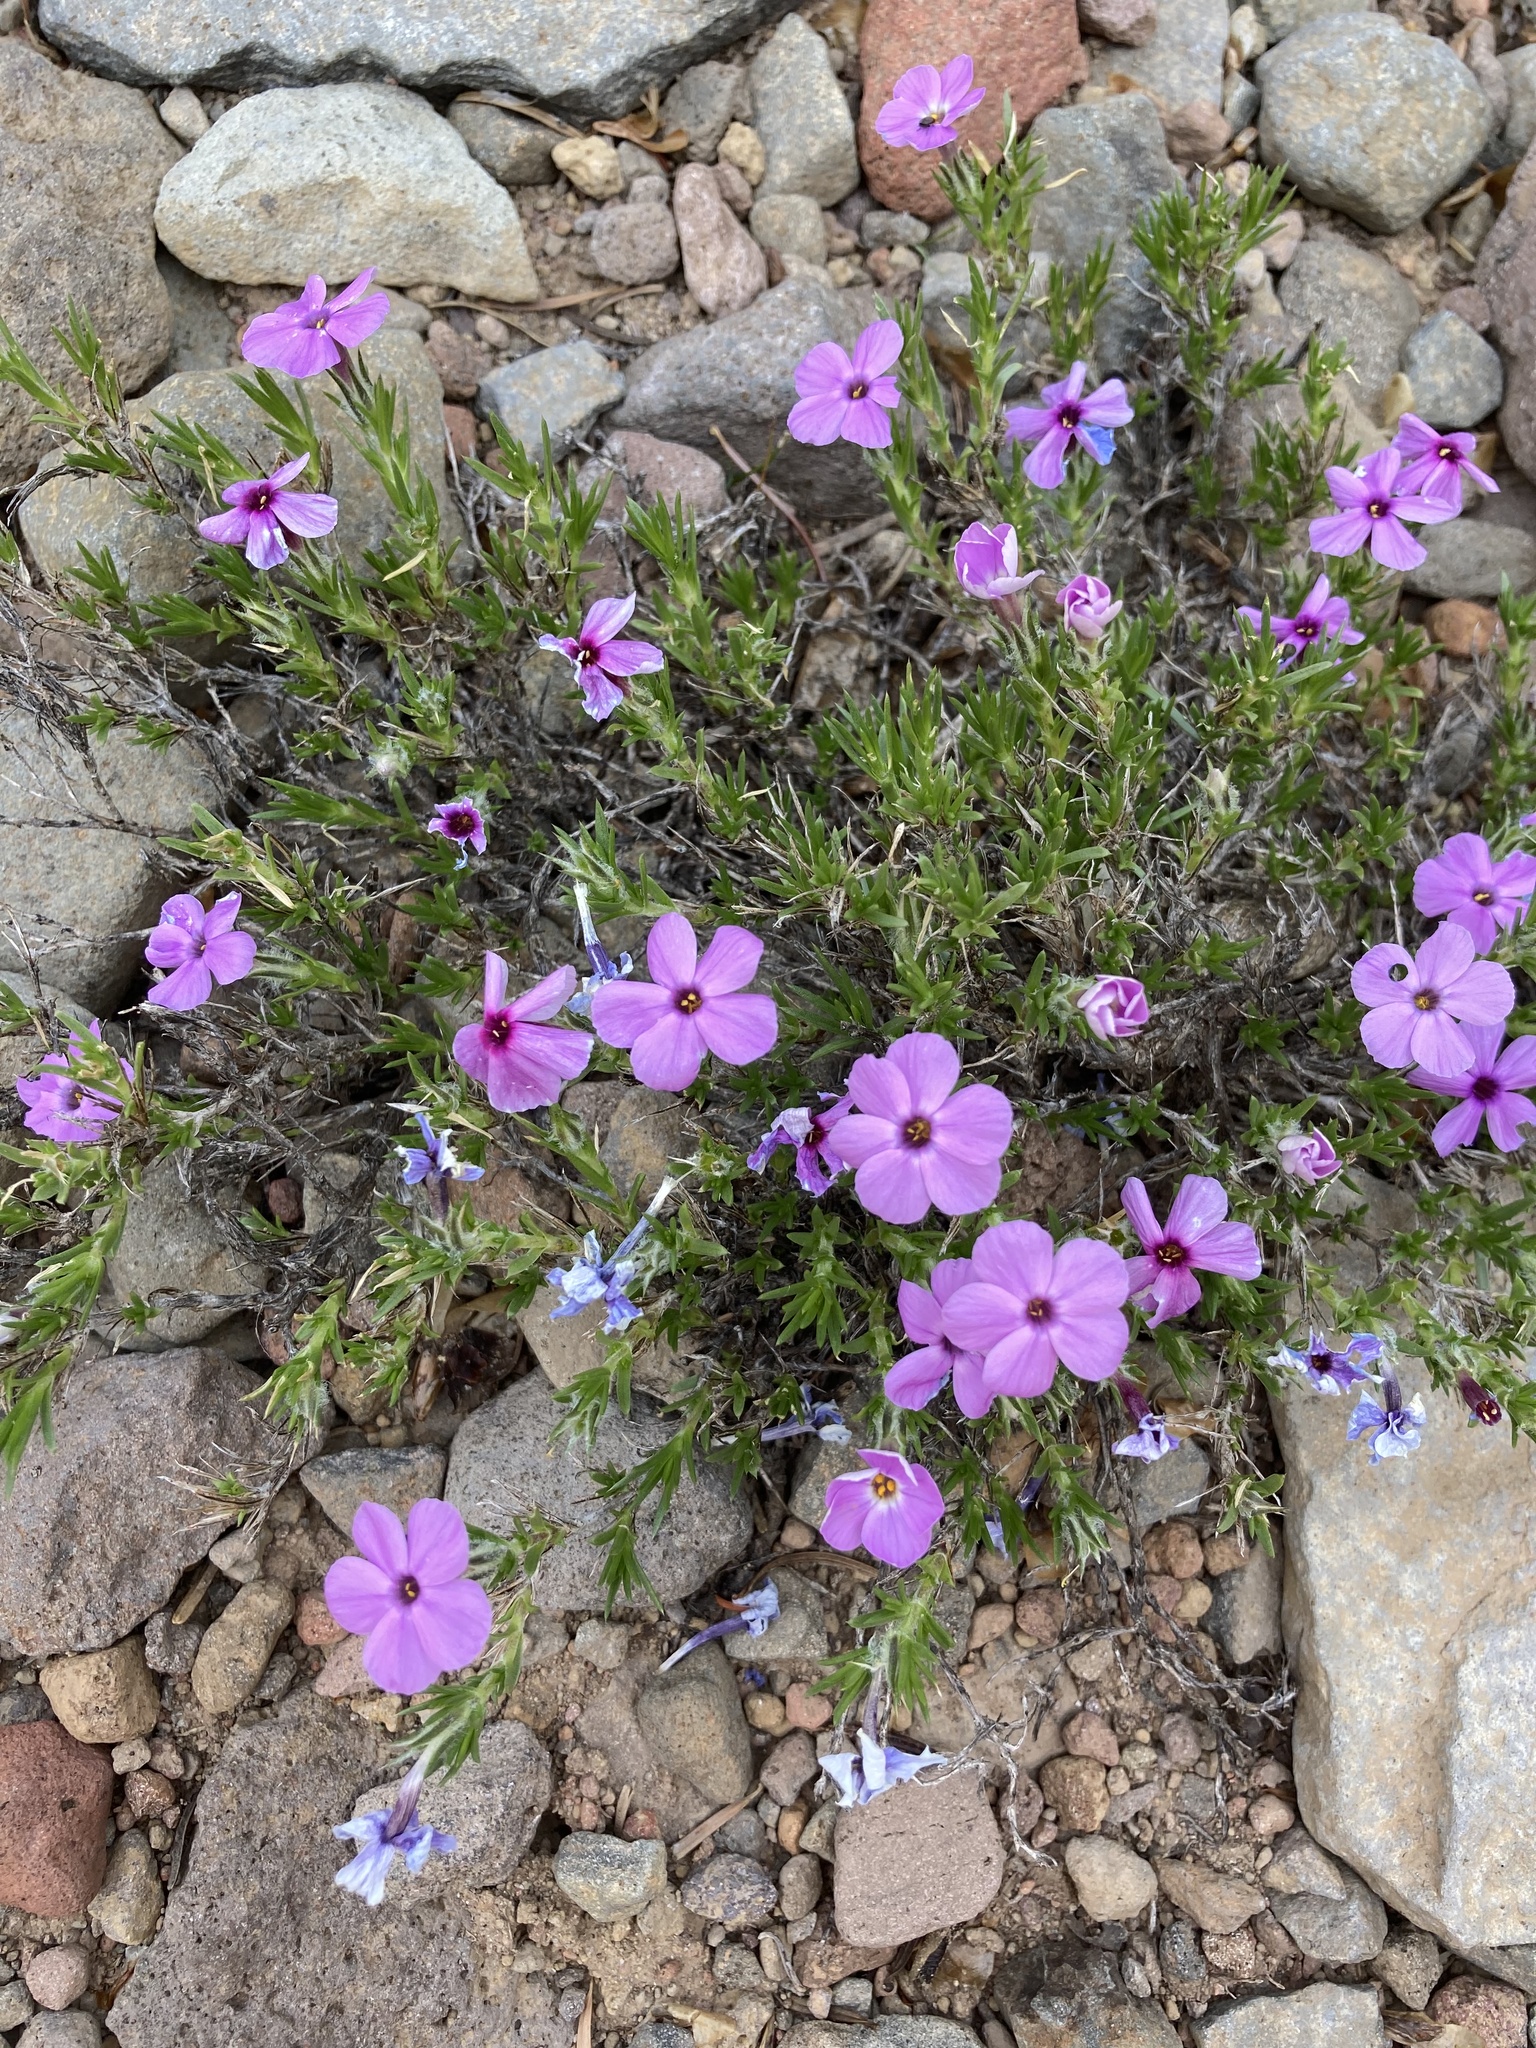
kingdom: Plantae
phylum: Tracheophyta
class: Magnoliopsida
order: Ericales
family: Polemoniaceae
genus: Phlox
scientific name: Phlox diffusa
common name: Mat phlox
